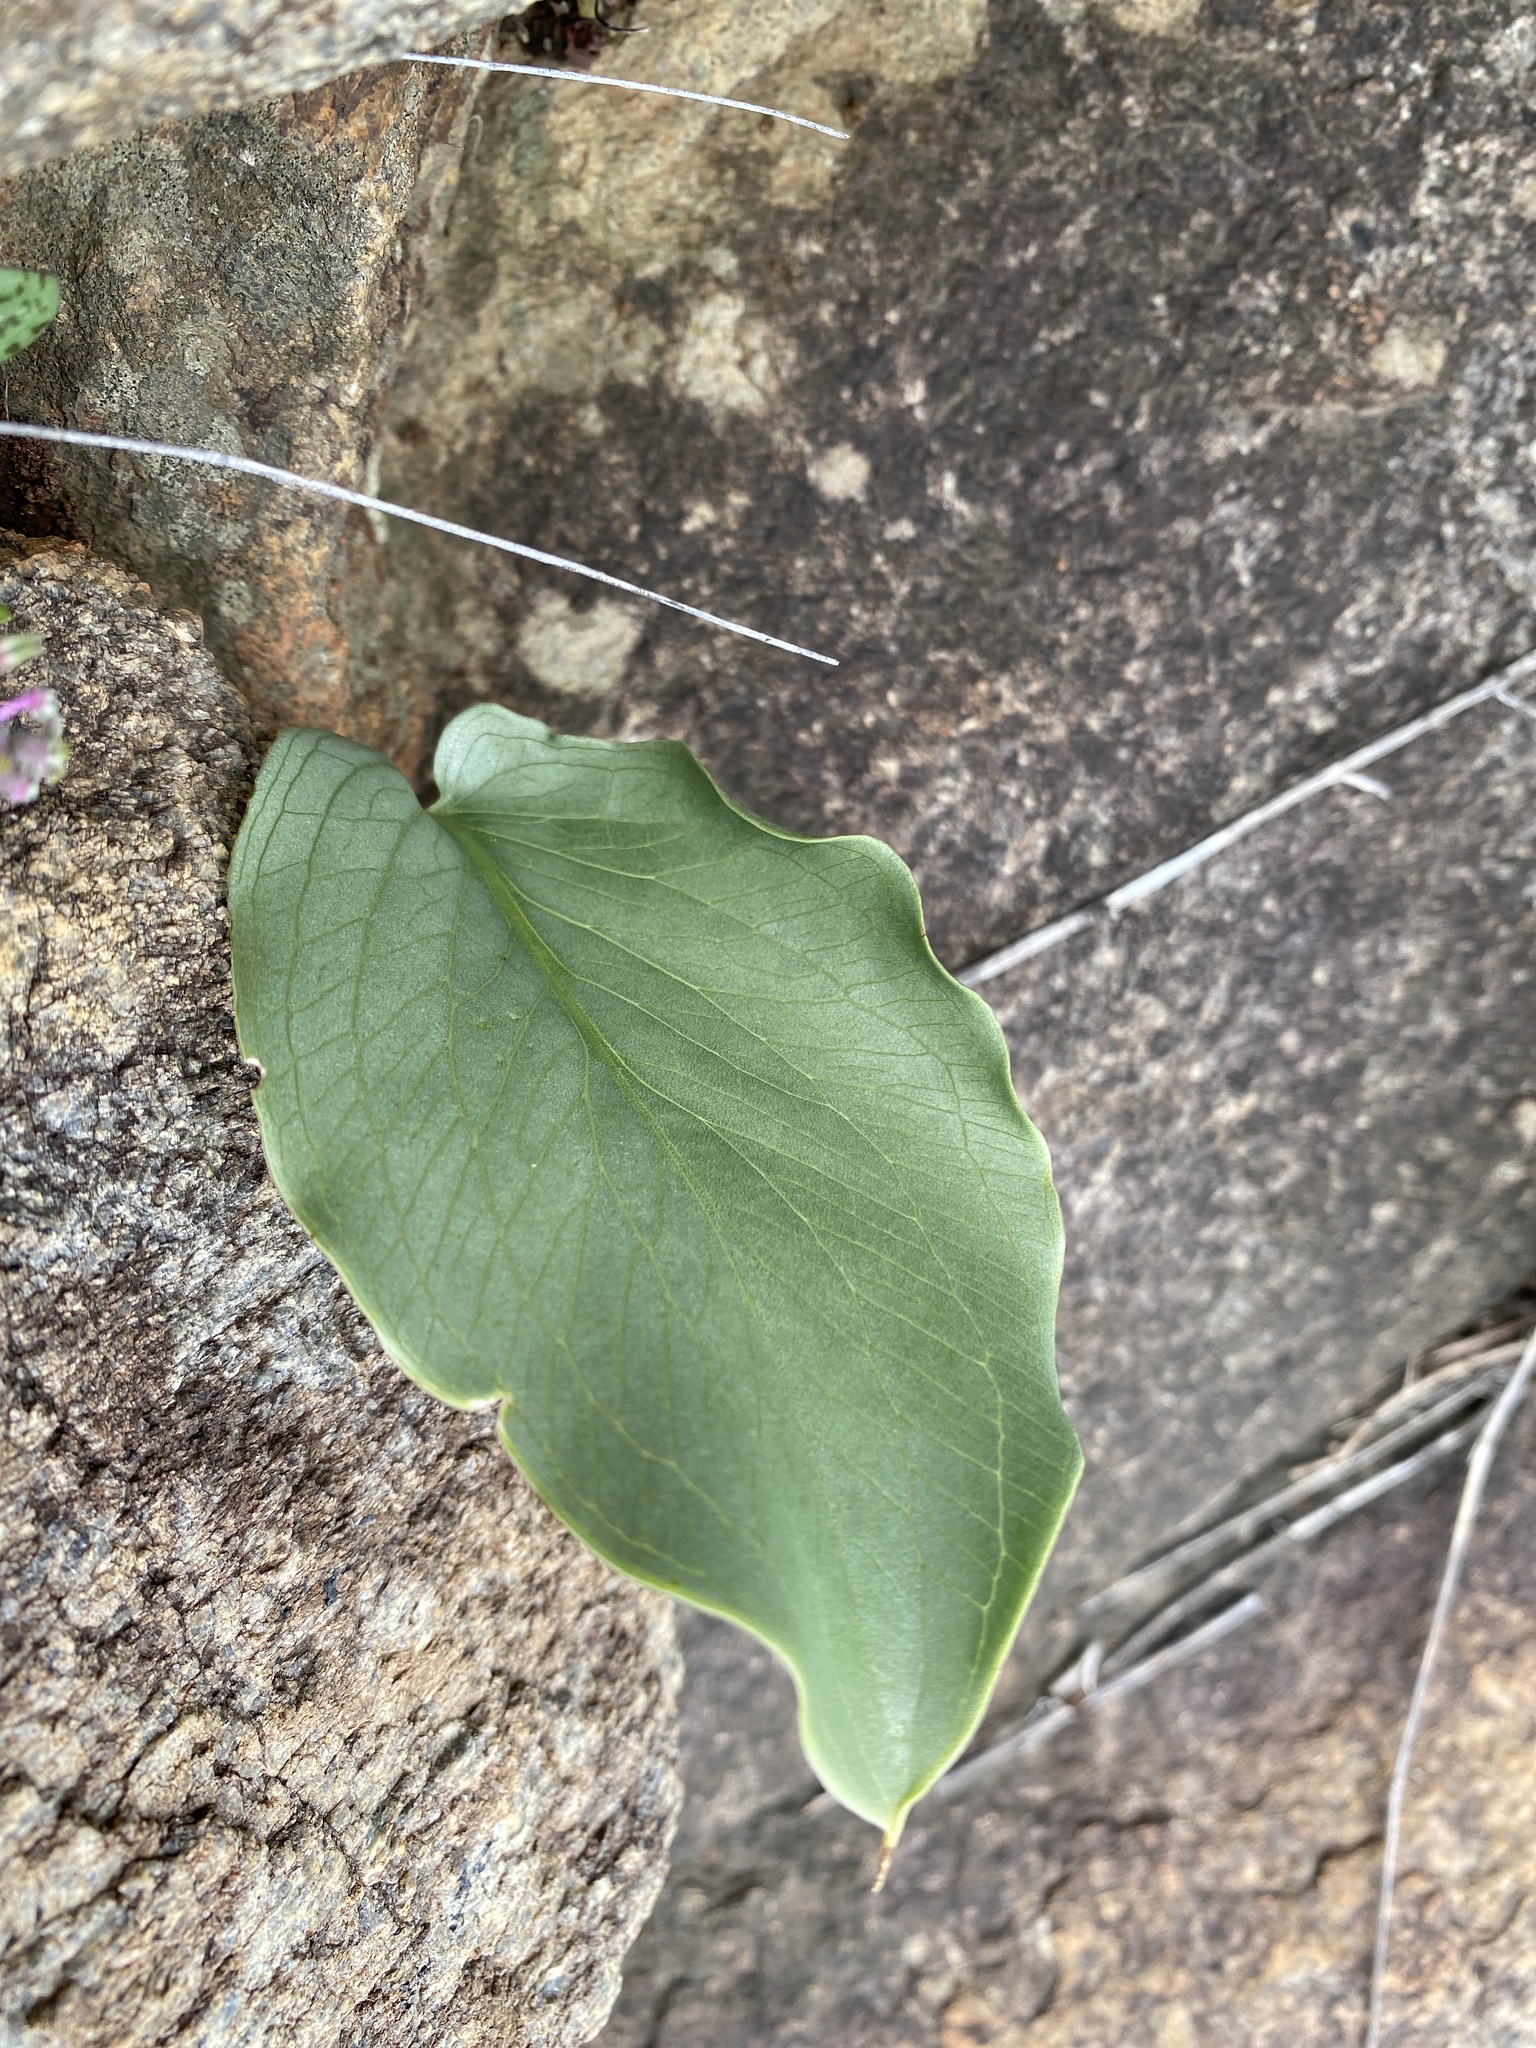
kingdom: Plantae
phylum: Tracheophyta
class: Liliopsida
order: Alismatales
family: Araceae
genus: Stylochaeton
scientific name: Stylochaeton natalensis
